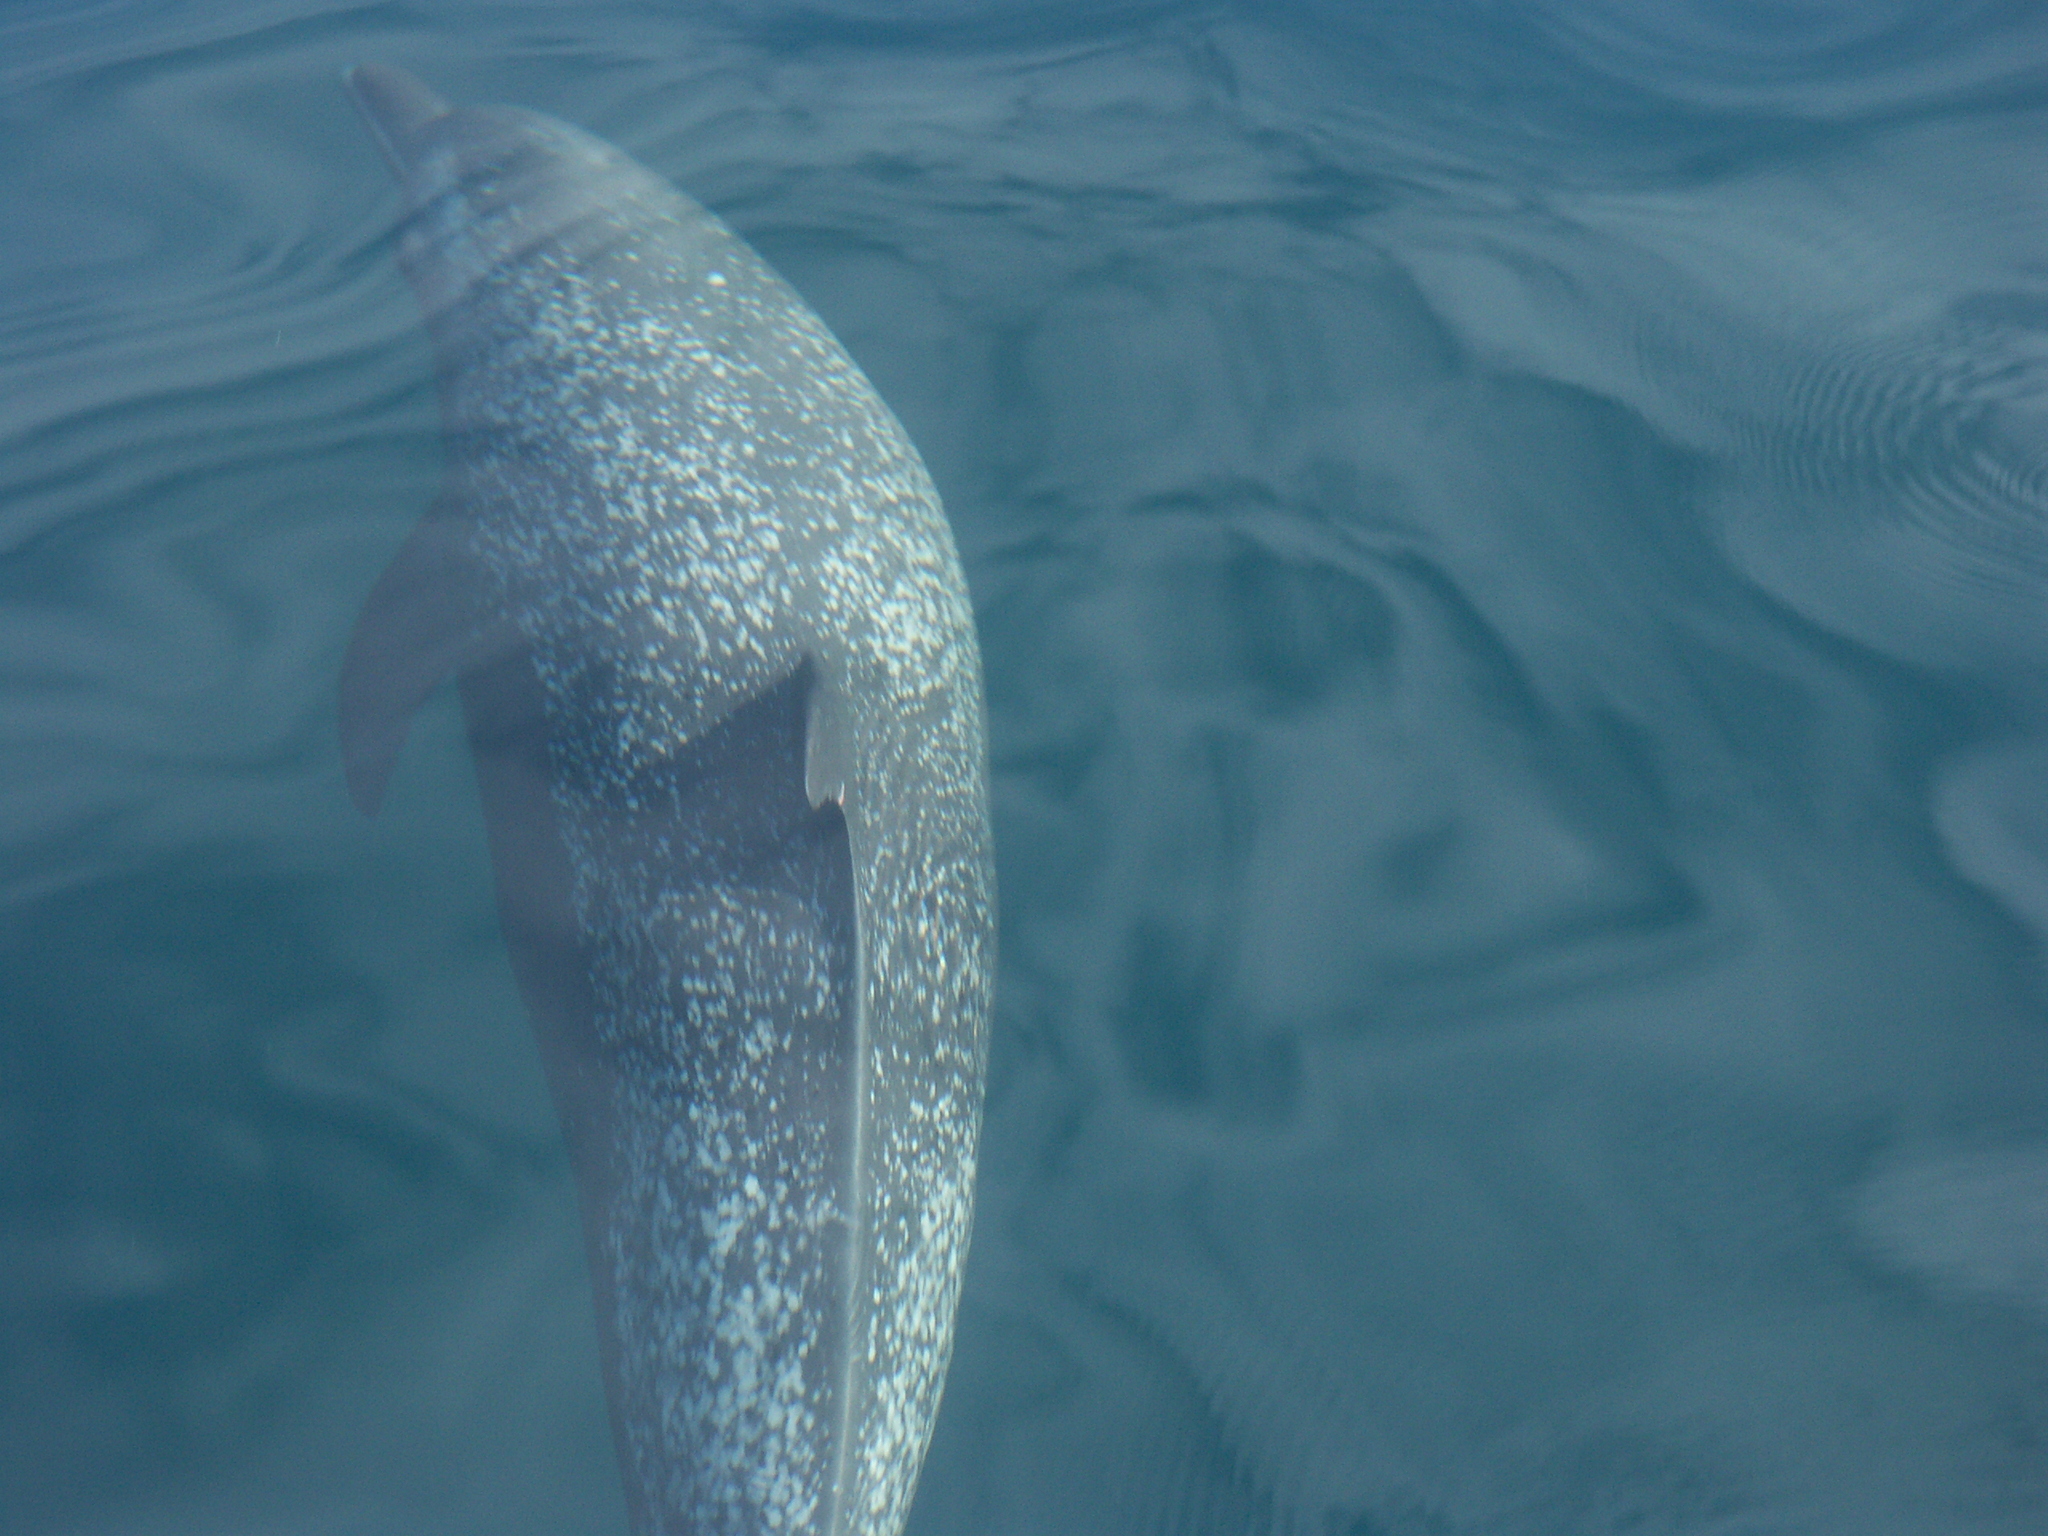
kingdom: Animalia
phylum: Chordata
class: Mammalia
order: Cetacea
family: Delphinidae
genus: Stenella
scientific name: Stenella attenuata
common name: Pantropical spotted dolphin
